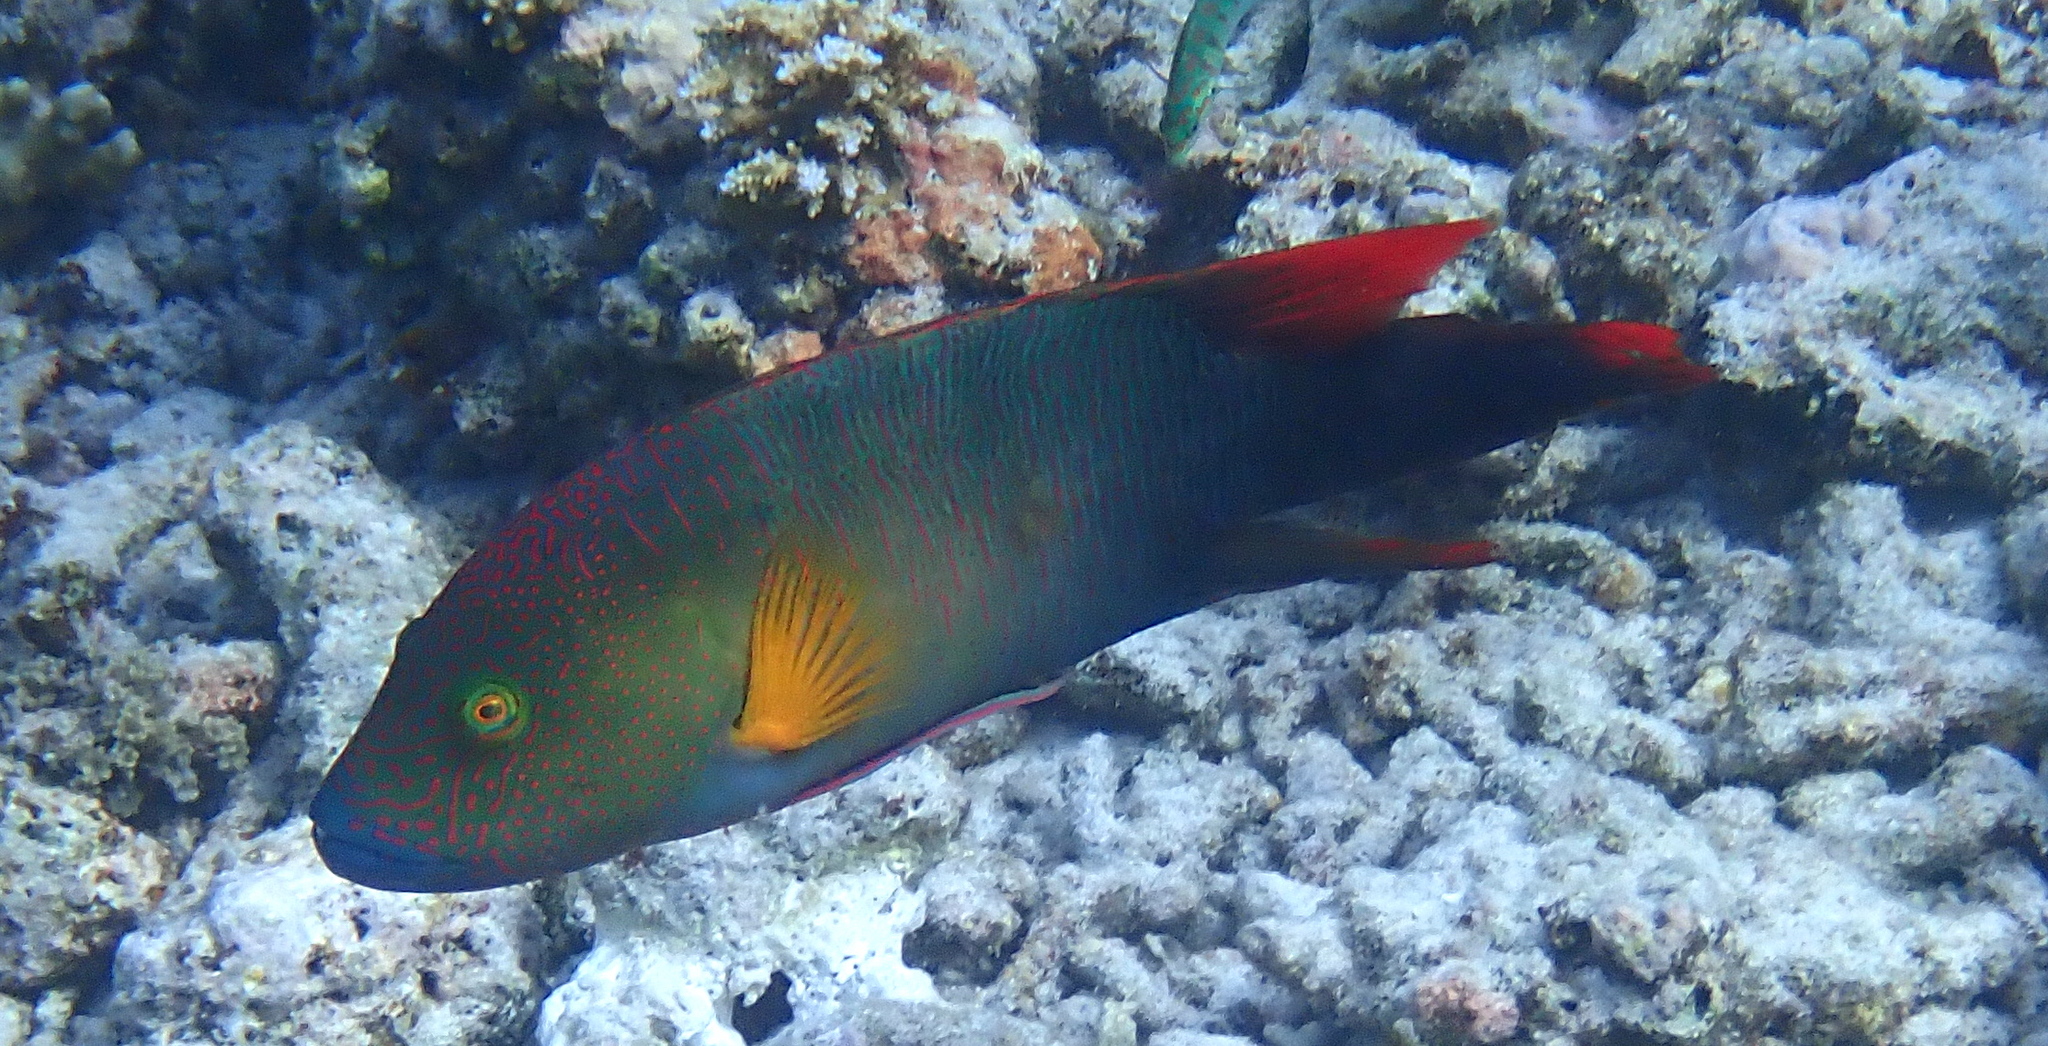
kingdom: Animalia
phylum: Chordata
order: Perciformes
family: Labridae
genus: Cheilinus
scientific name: Cheilinus trilobatus
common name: Tripletail maori wrasse
